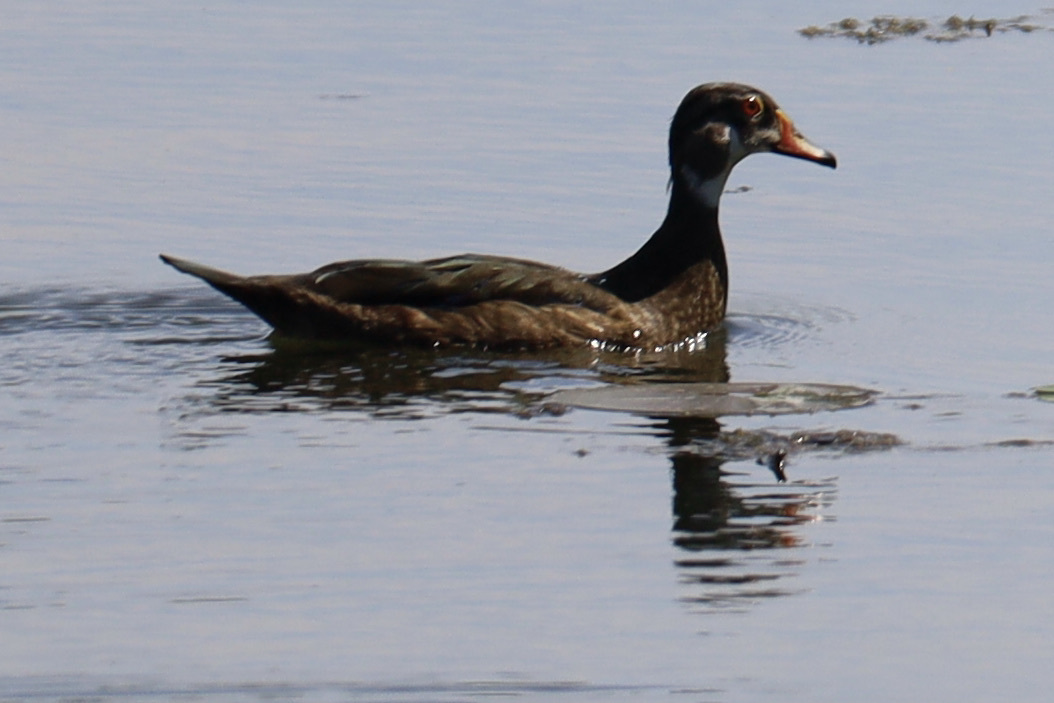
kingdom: Animalia
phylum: Chordata
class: Aves
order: Anseriformes
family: Anatidae
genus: Aix
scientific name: Aix sponsa
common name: Wood duck
